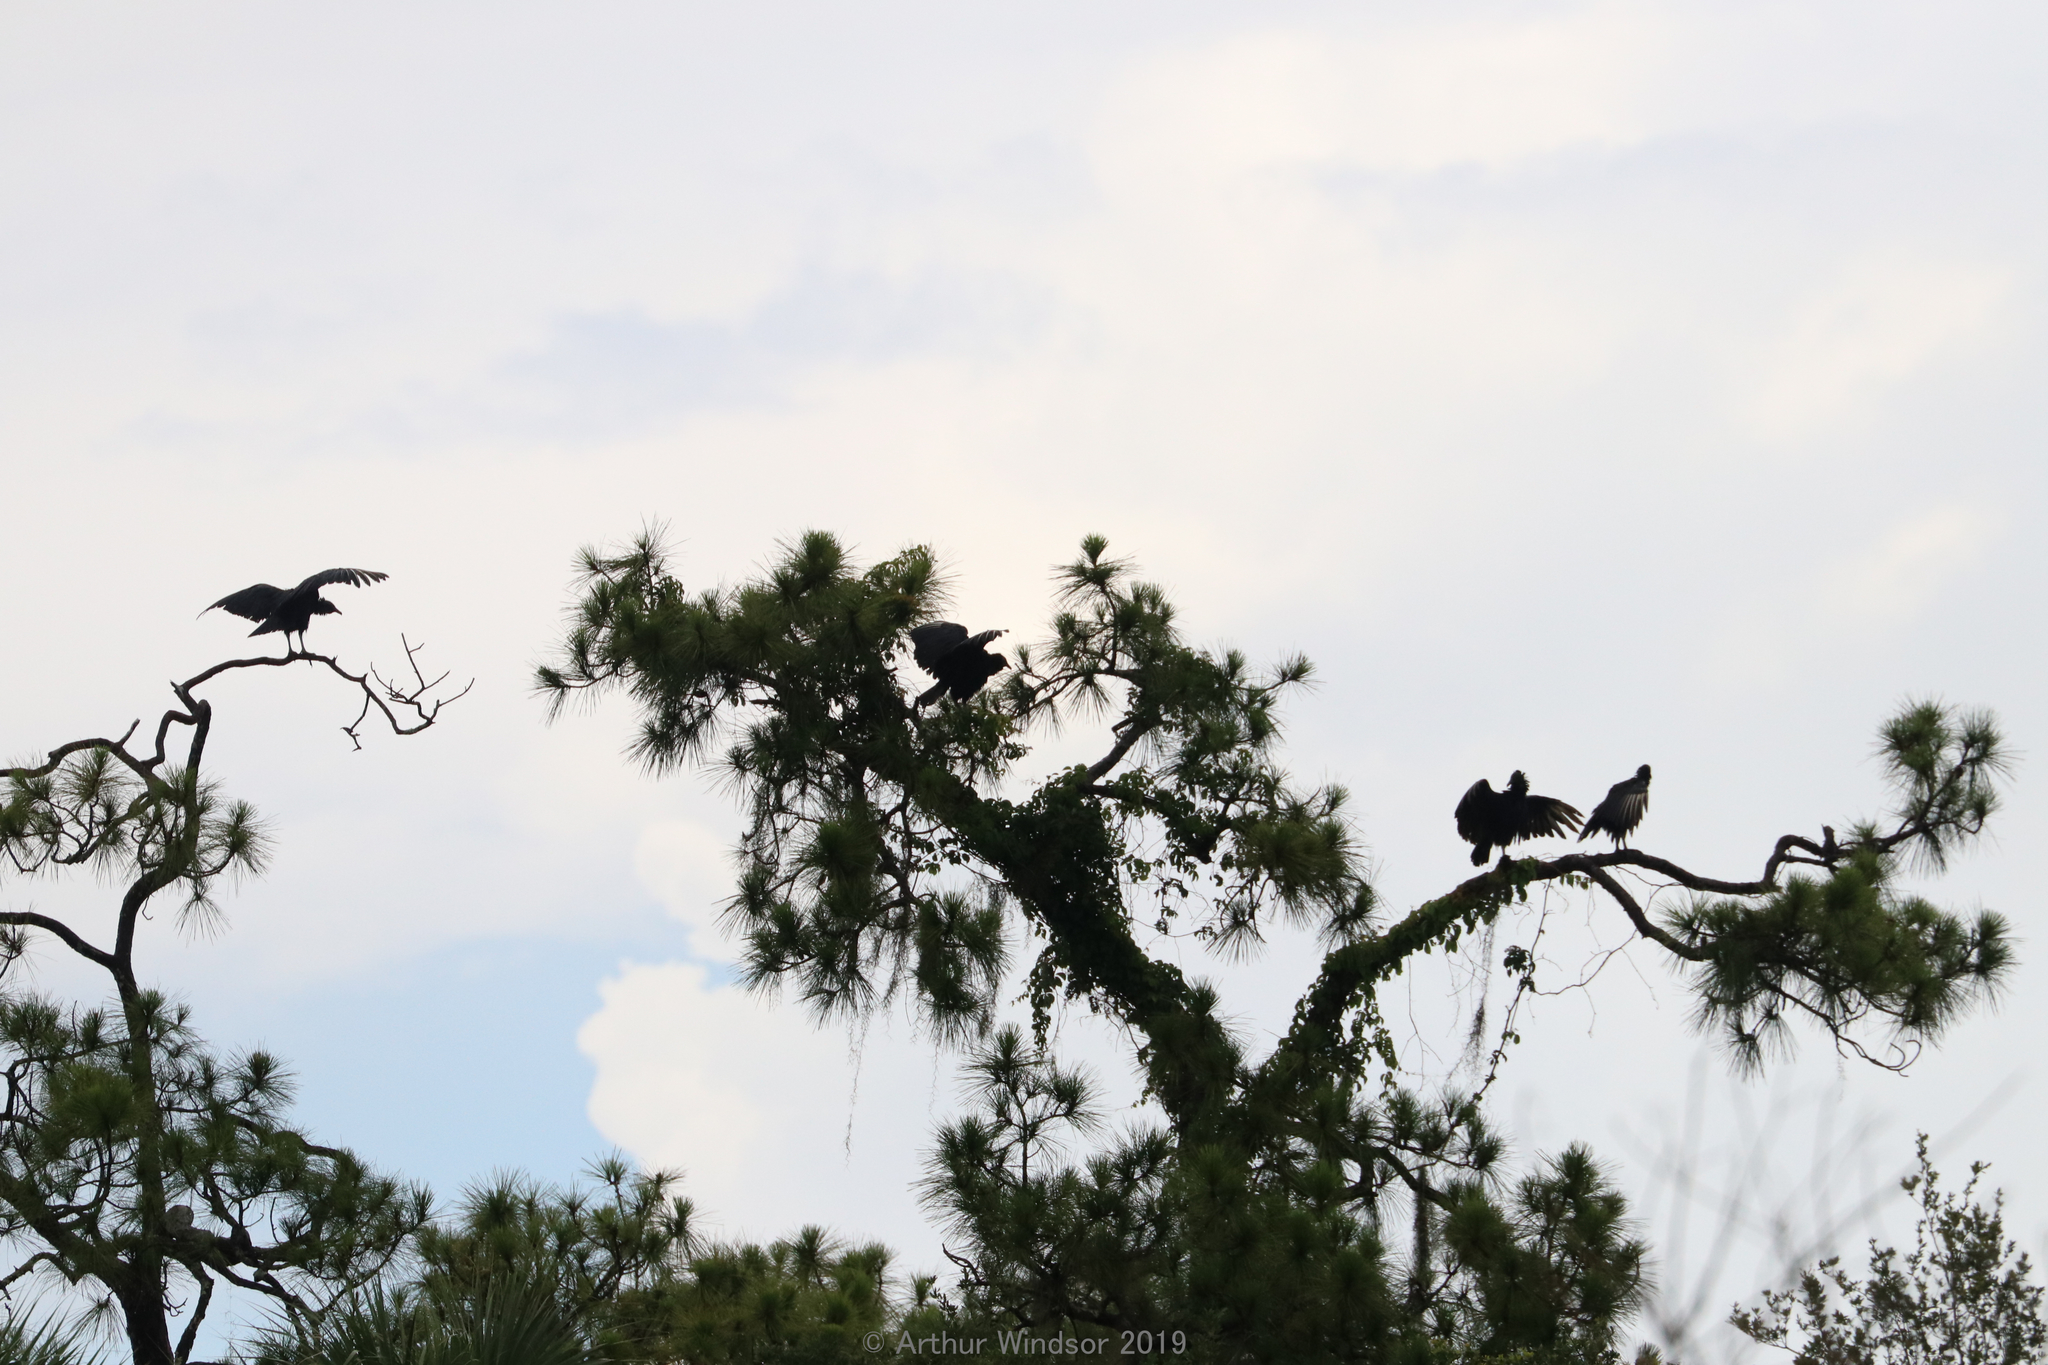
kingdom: Animalia
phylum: Chordata
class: Aves
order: Accipitriformes
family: Cathartidae
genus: Coragyps
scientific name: Coragyps atratus
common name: Black vulture
